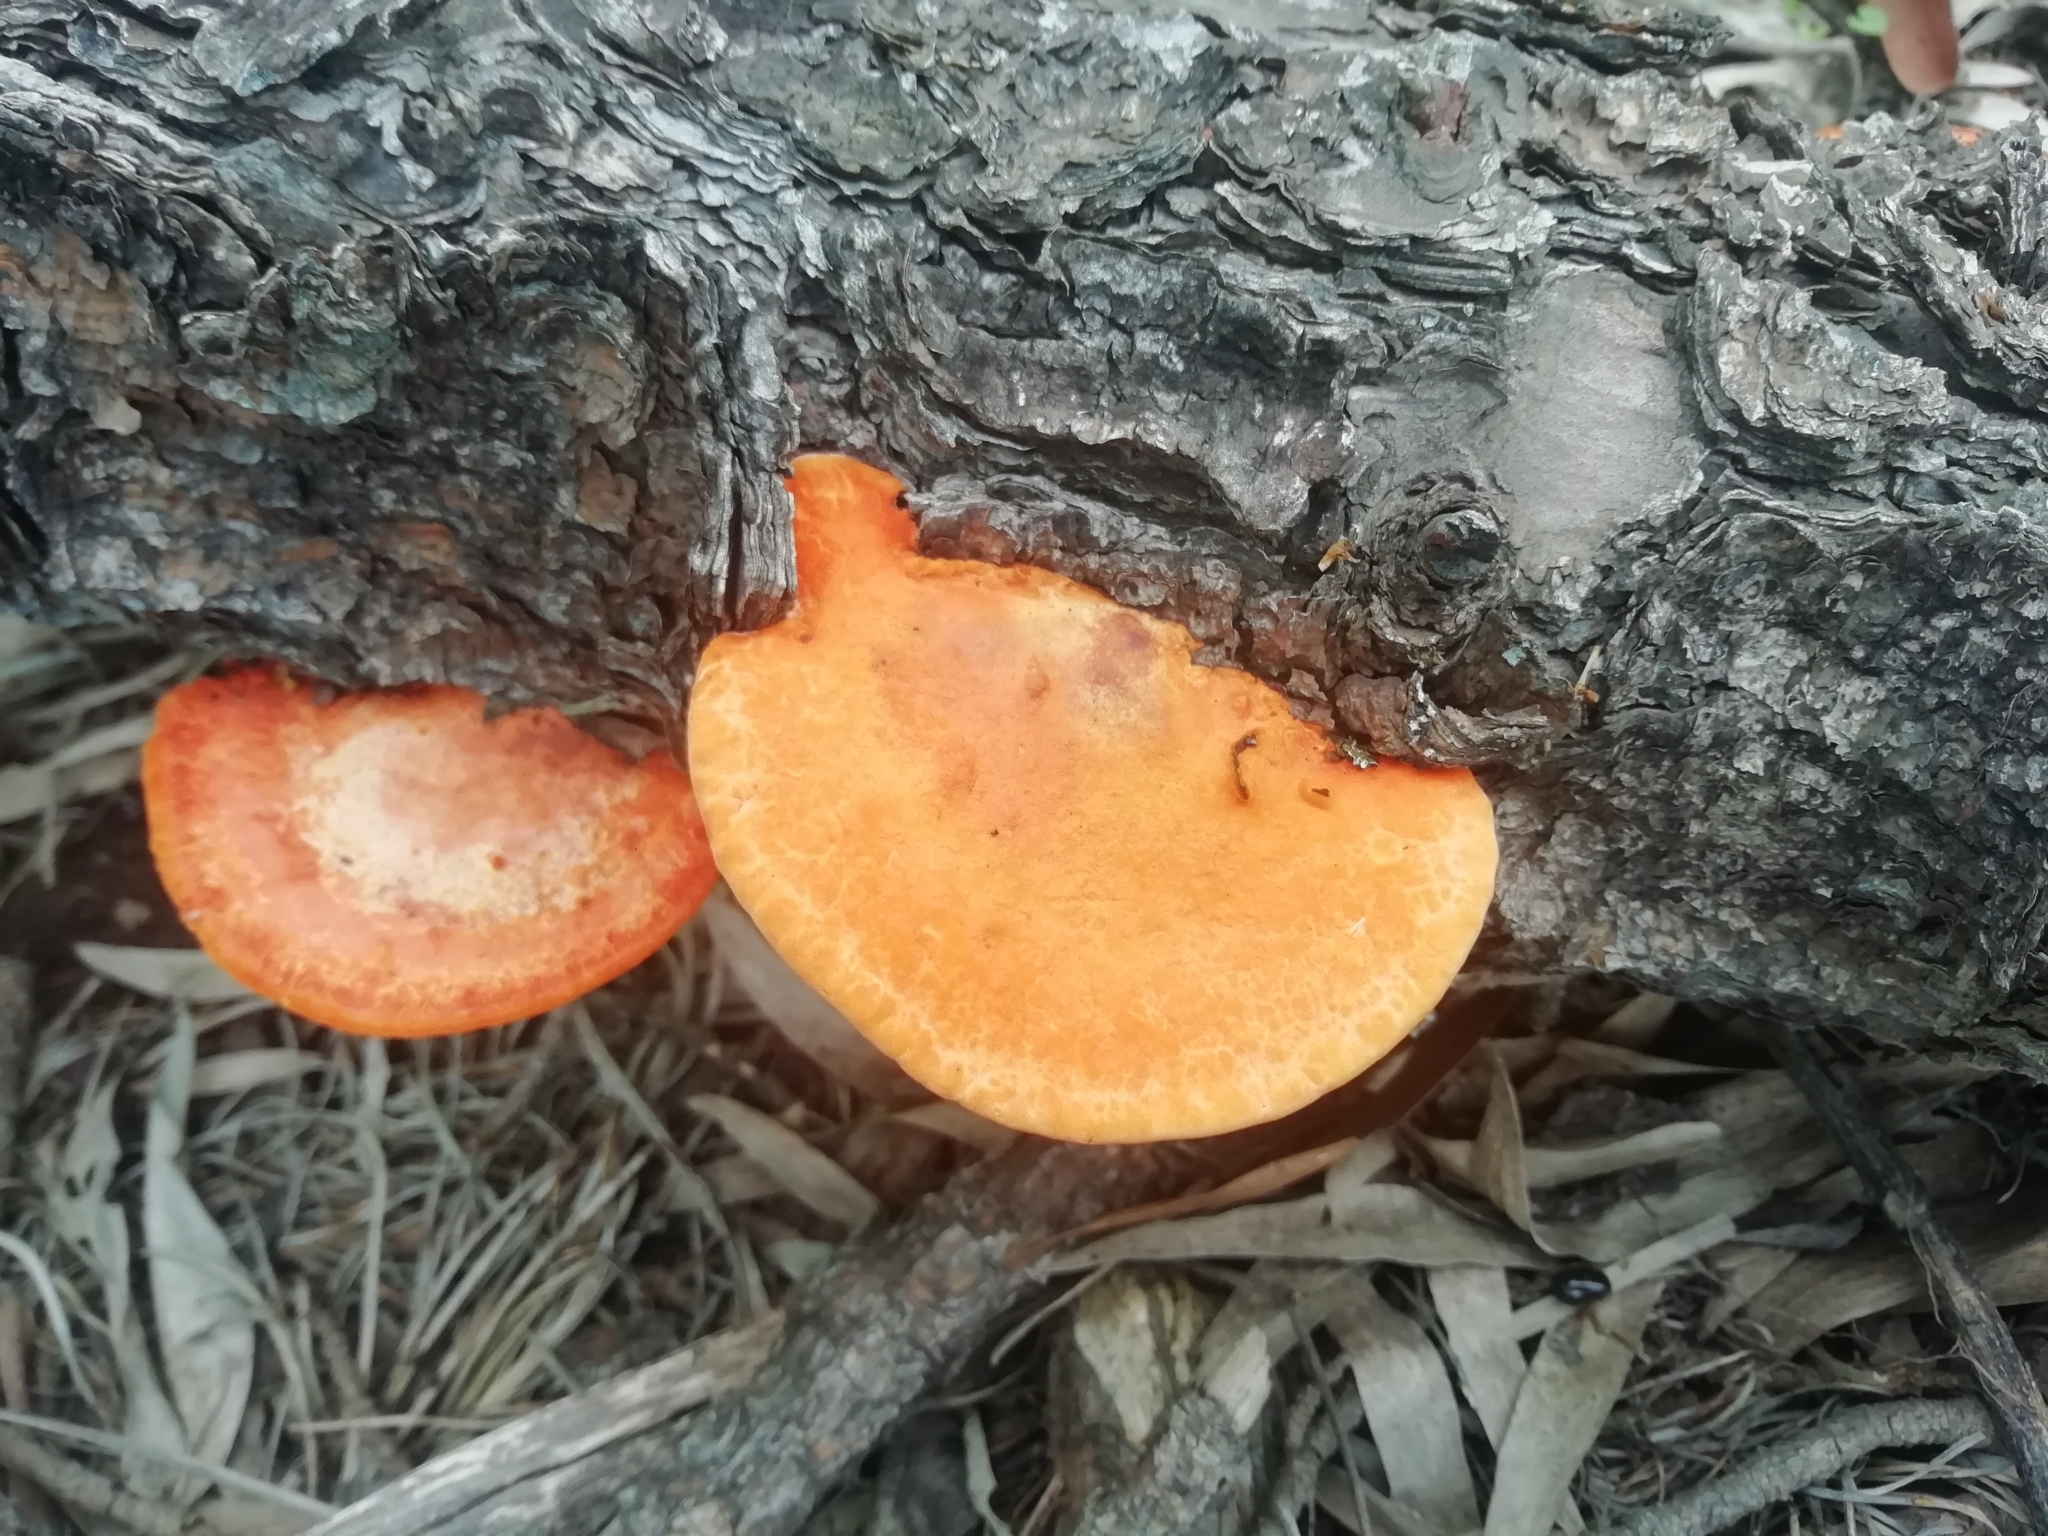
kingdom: Fungi
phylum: Basidiomycota
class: Agaricomycetes
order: Polyporales
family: Polyporaceae
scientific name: Polyporaceae
